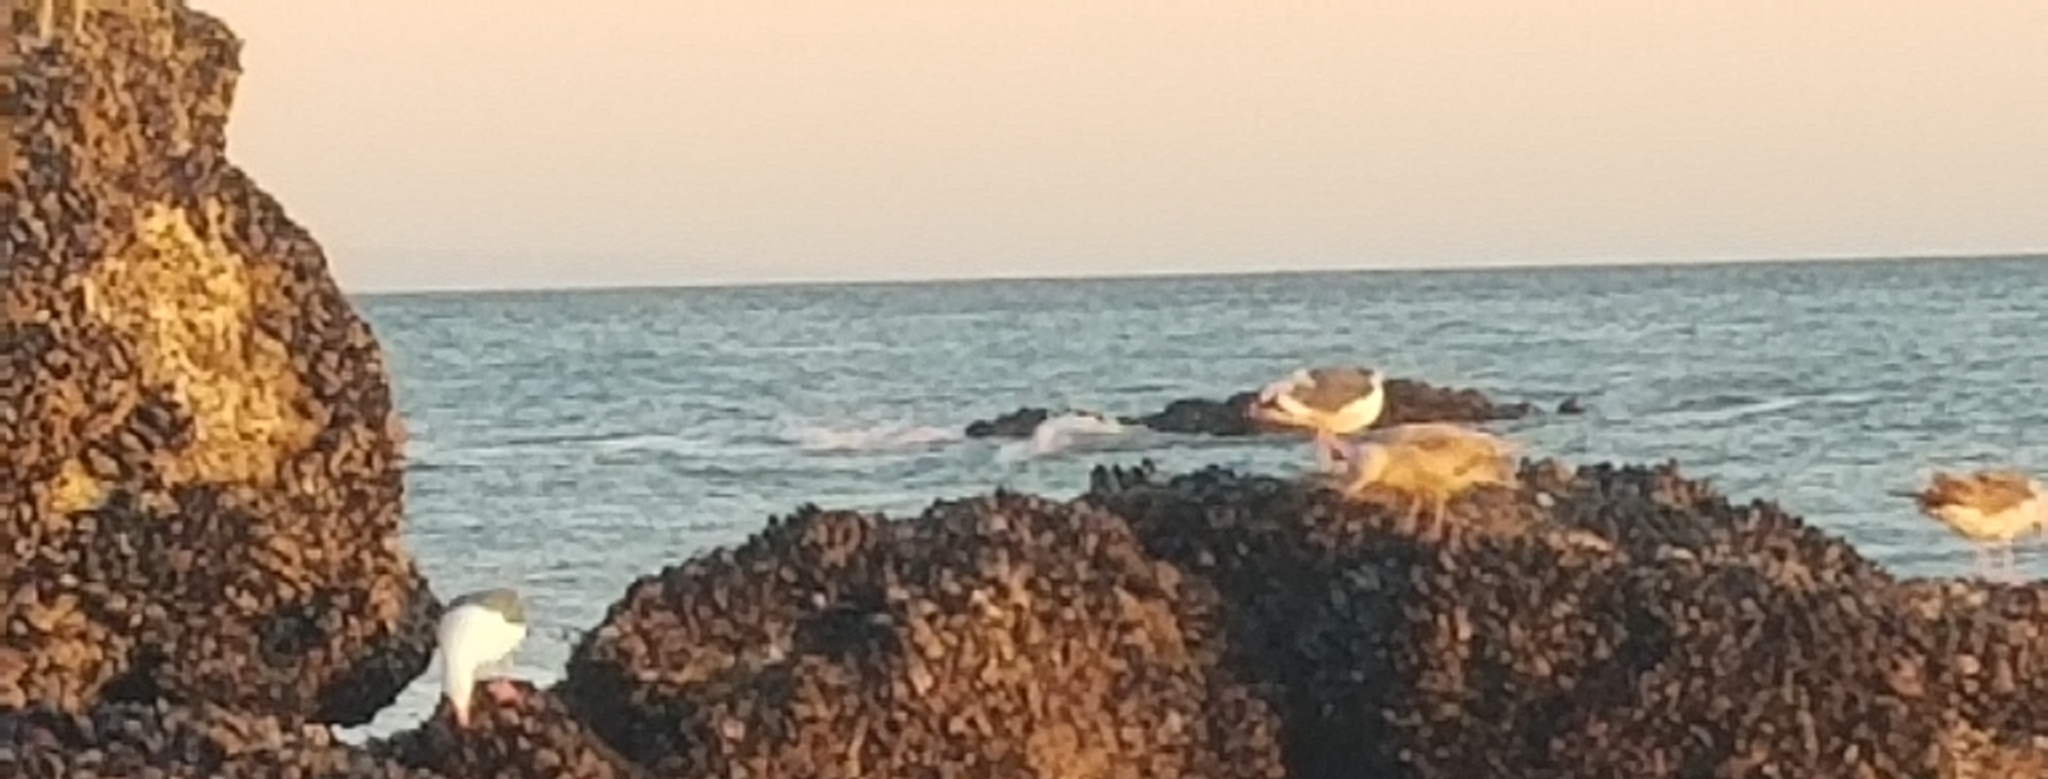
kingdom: Animalia
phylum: Chordata
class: Aves
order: Charadriiformes
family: Laridae
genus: Larus
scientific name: Larus occidentalis
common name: Western gull
